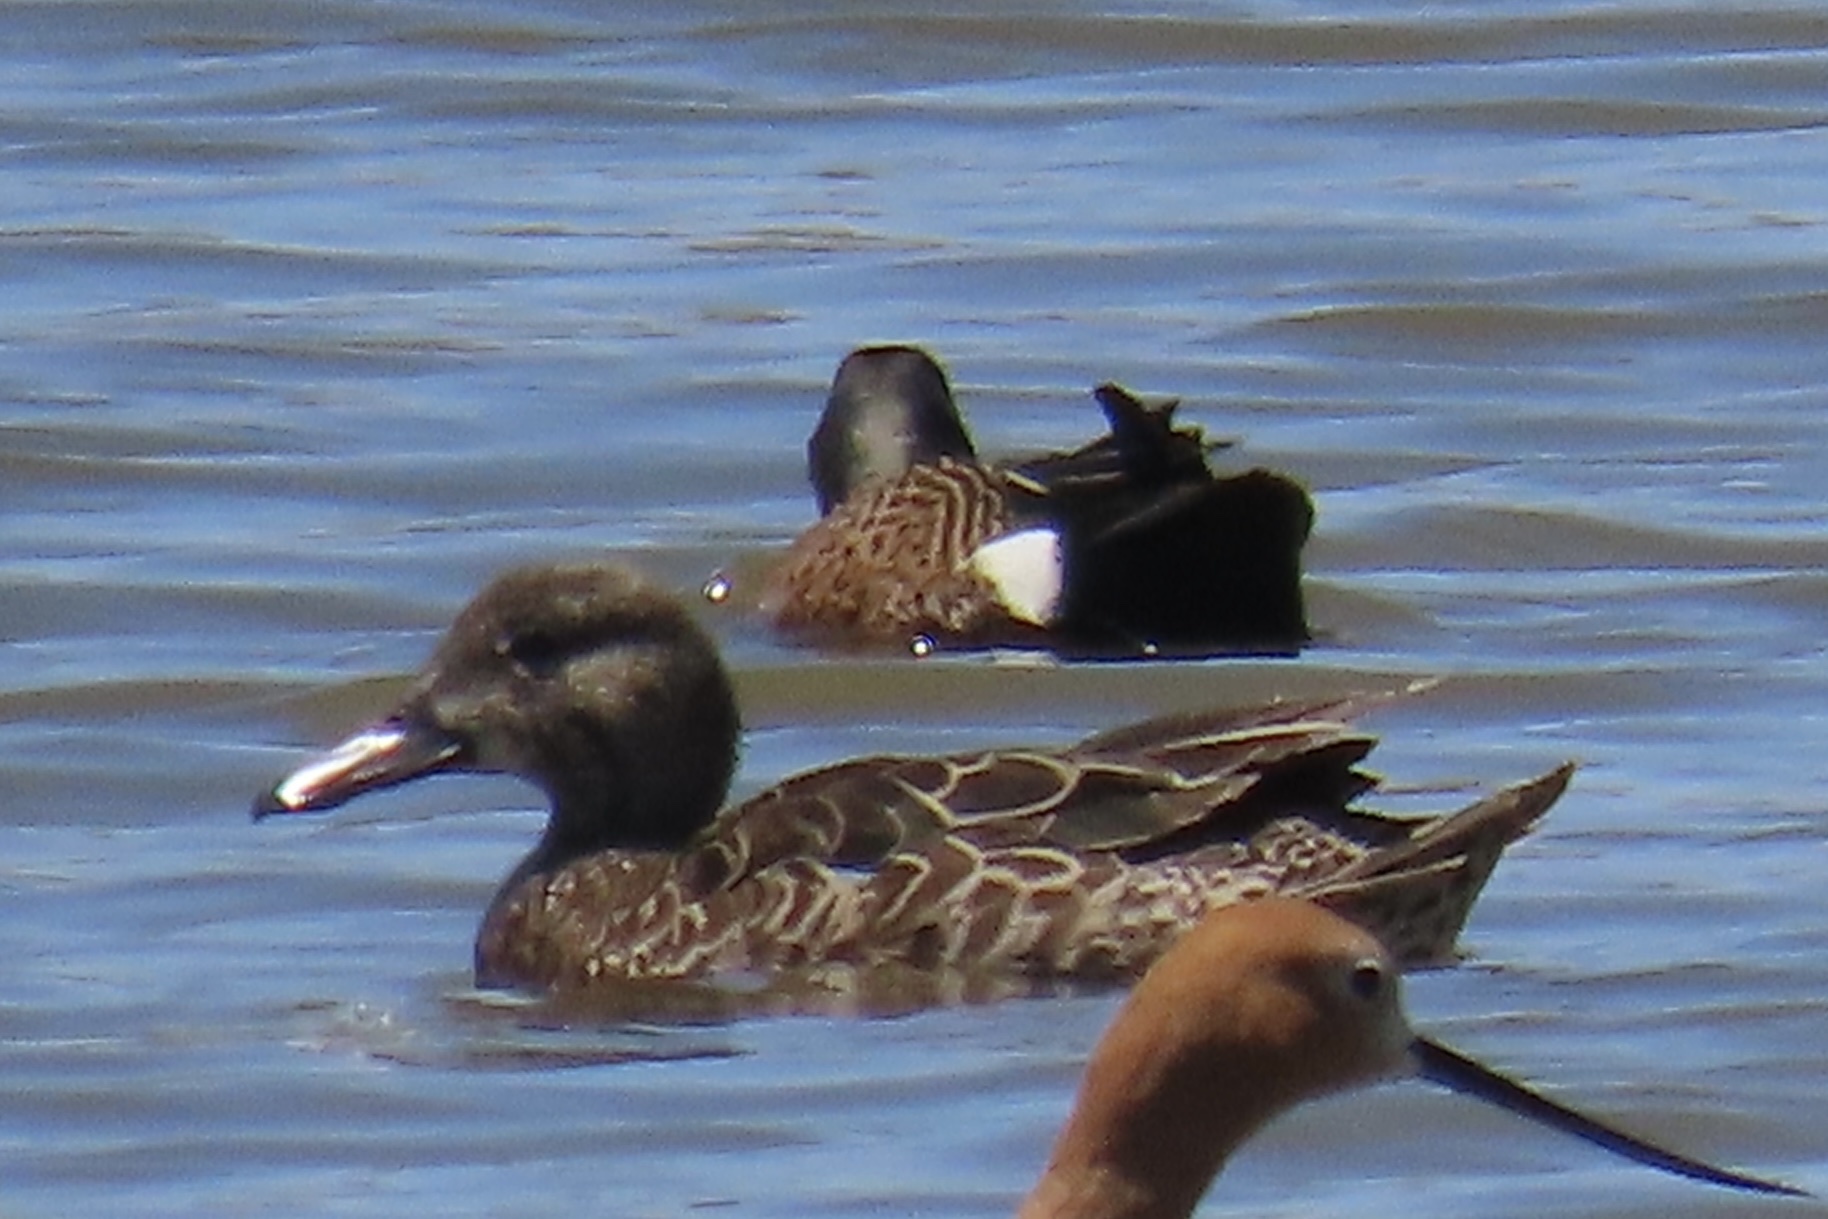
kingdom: Animalia
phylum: Chordata
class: Aves
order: Anseriformes
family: Anatidae
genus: Spatula
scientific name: Spatula discors
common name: Blue-winged teal
